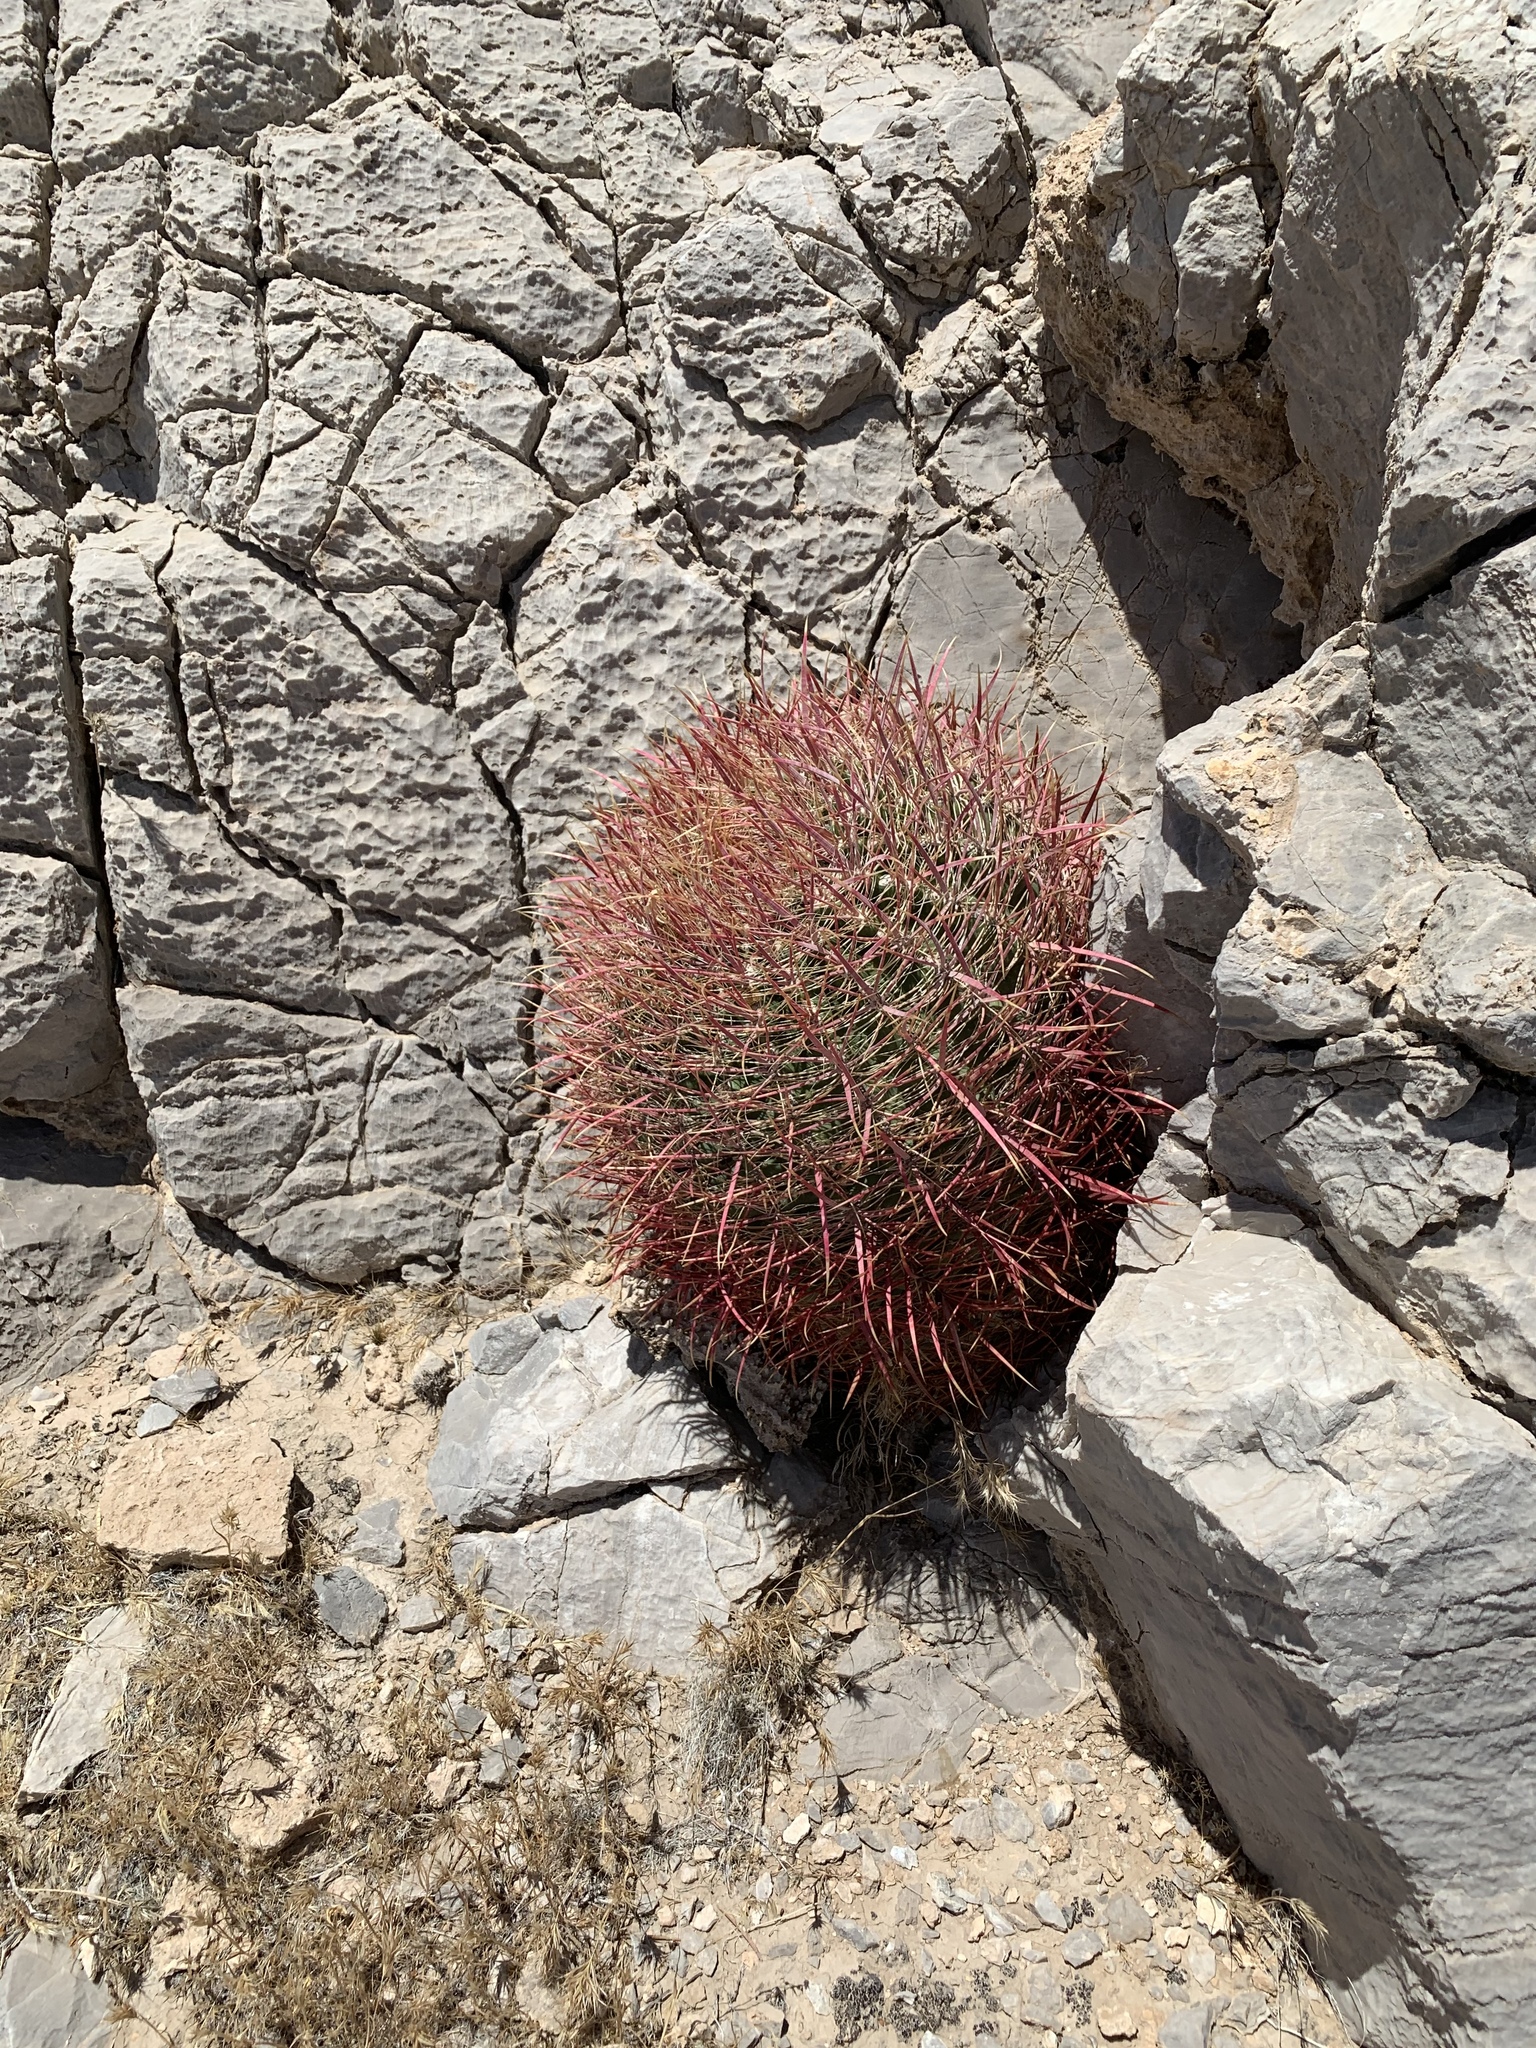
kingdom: Plantae
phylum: Tracheophyta
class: Magnoliopsida
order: Caryophyllales
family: Cactaceae
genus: Ferocactus
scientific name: Ferocactus cylindraceus
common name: California barrel cactus
